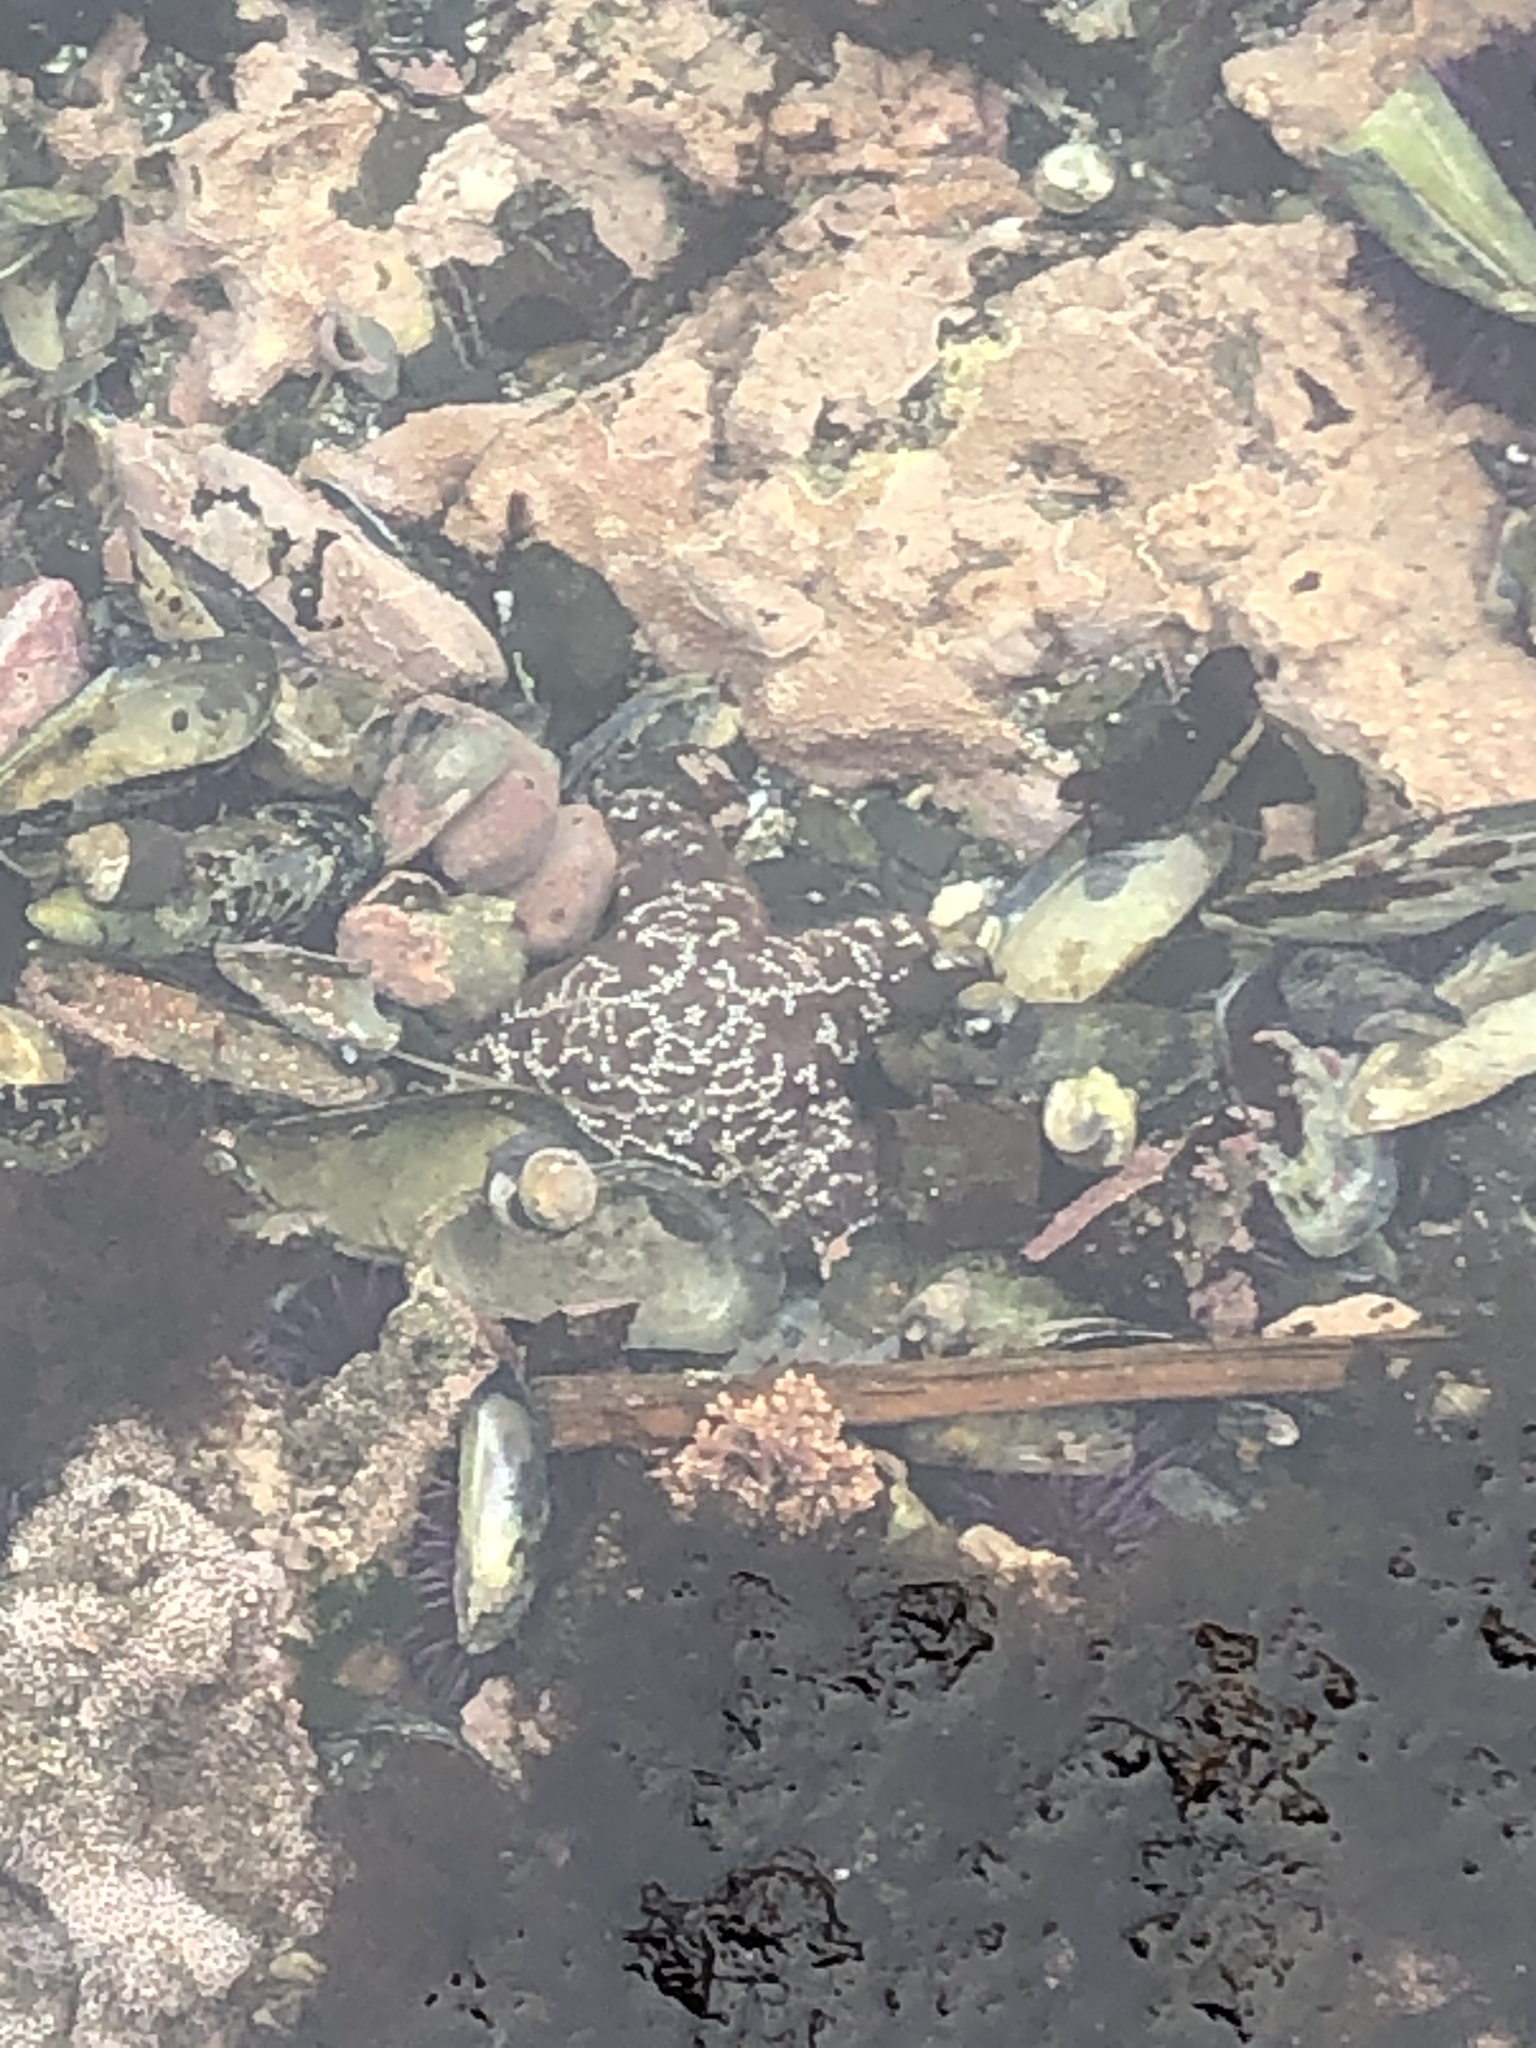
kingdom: Animalia
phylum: Echinodermata
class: Asteroidea
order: Forcipulatida
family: Asteriidae
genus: Pisaster
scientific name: Pisaster ochraceus
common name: Ochre stars
